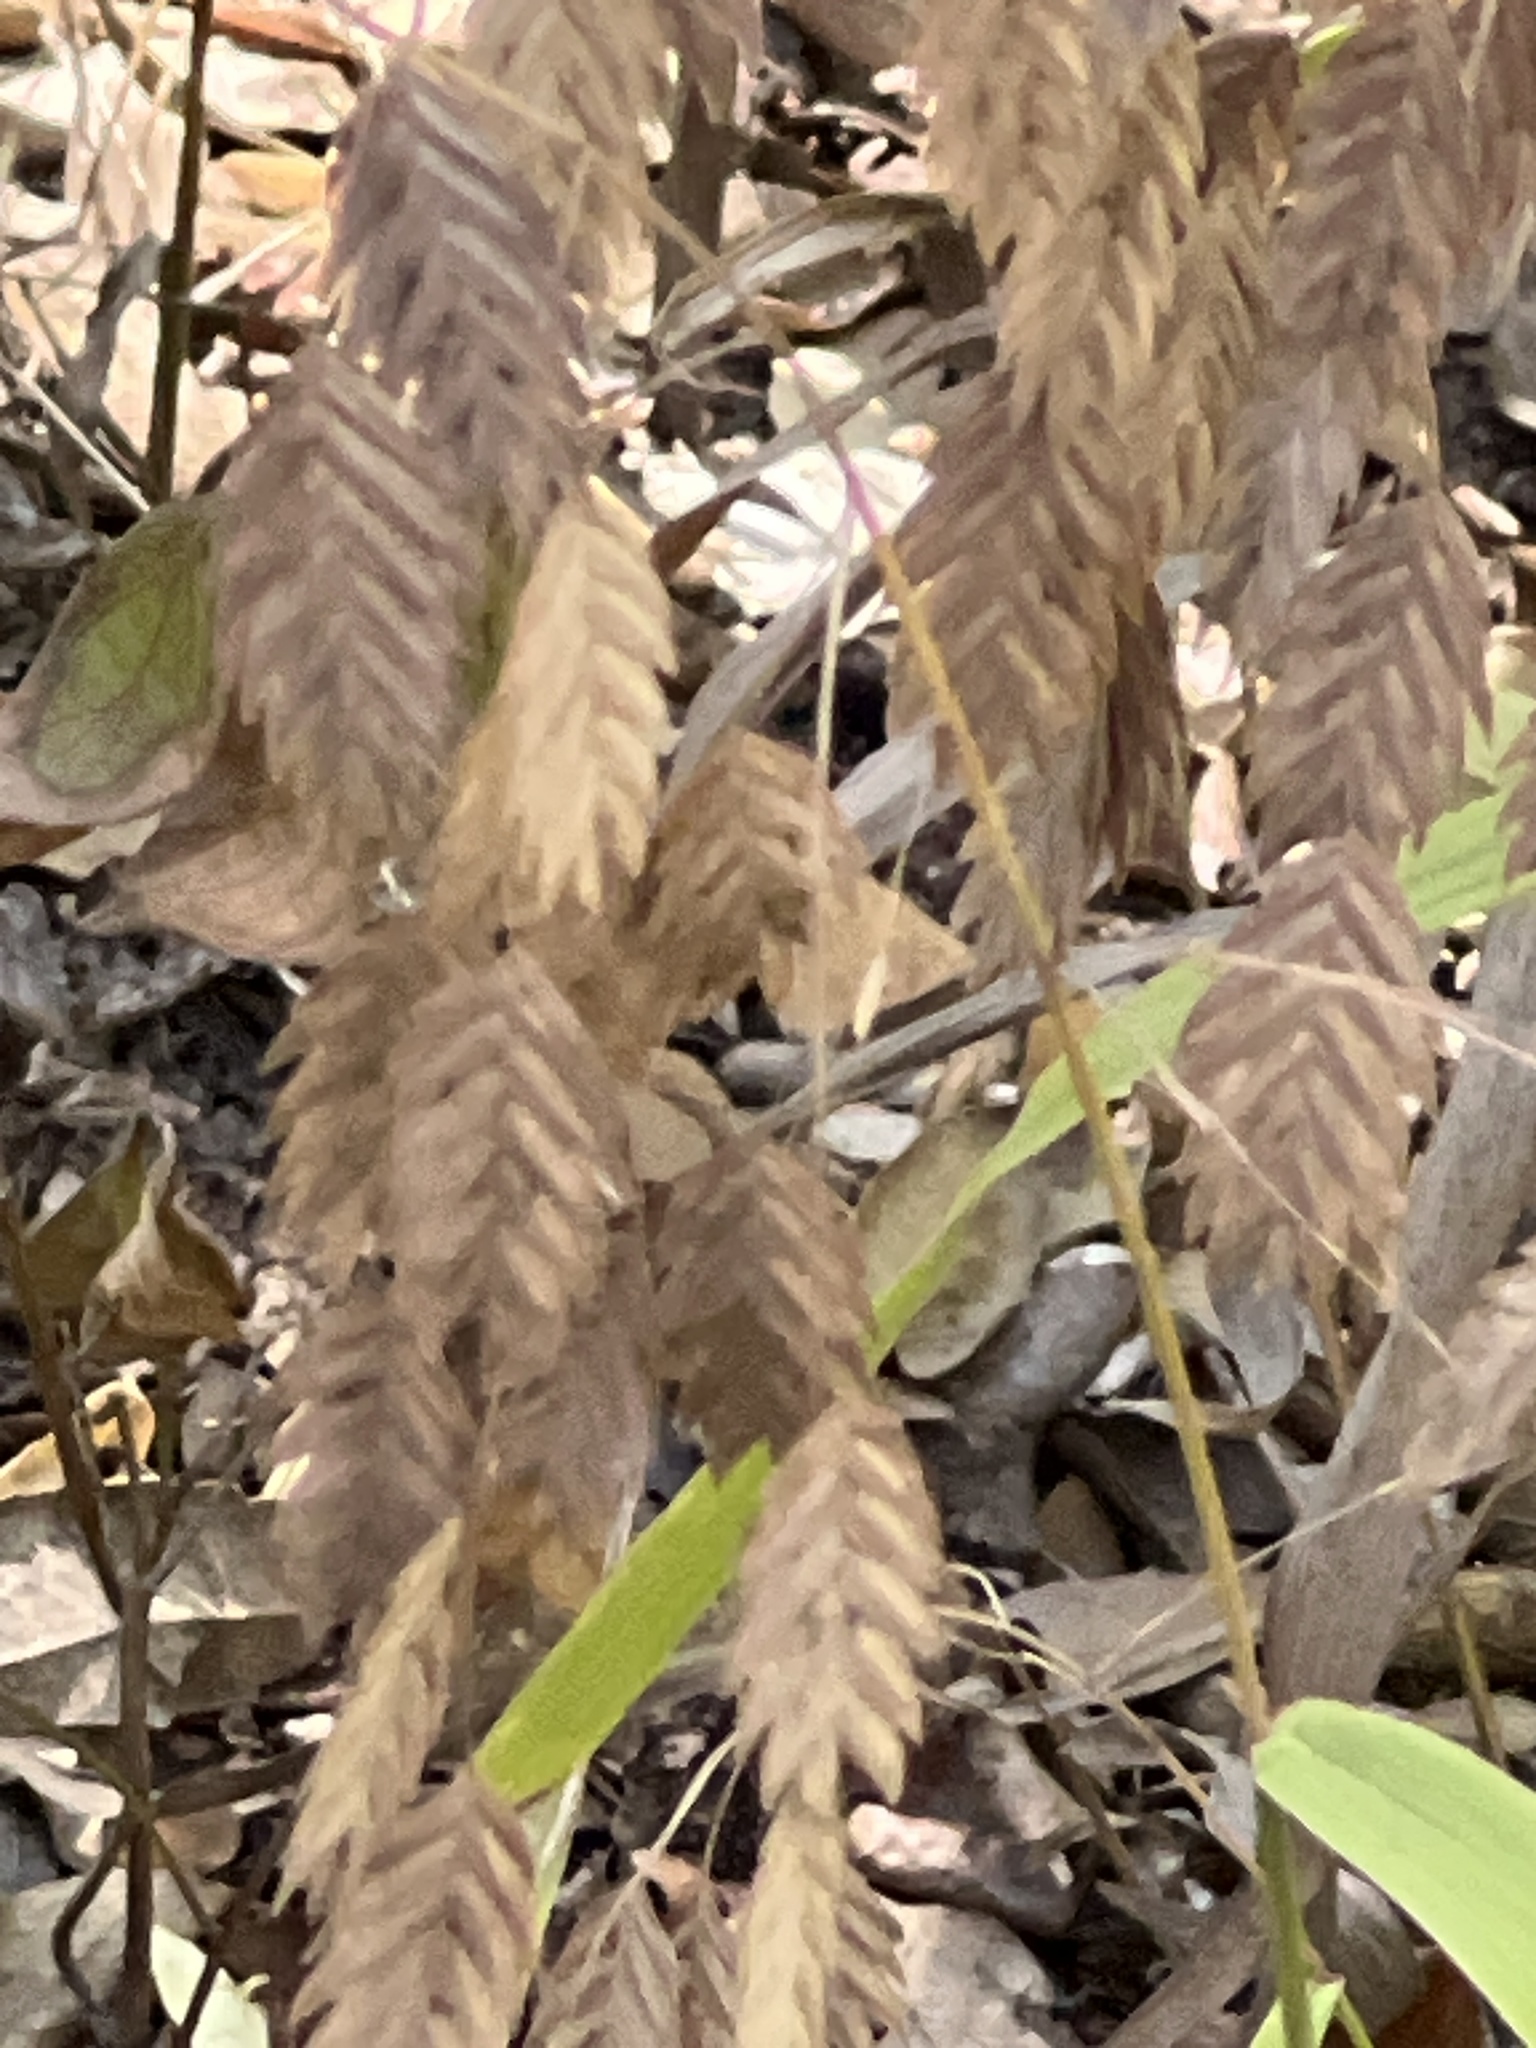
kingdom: Plantae
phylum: Tracheophyta
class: Liliopsida
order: Poales
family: Poaceae
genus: Chasmanthium
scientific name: Chasmanthium latifolium
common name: Broad-leaved chasmanthium
